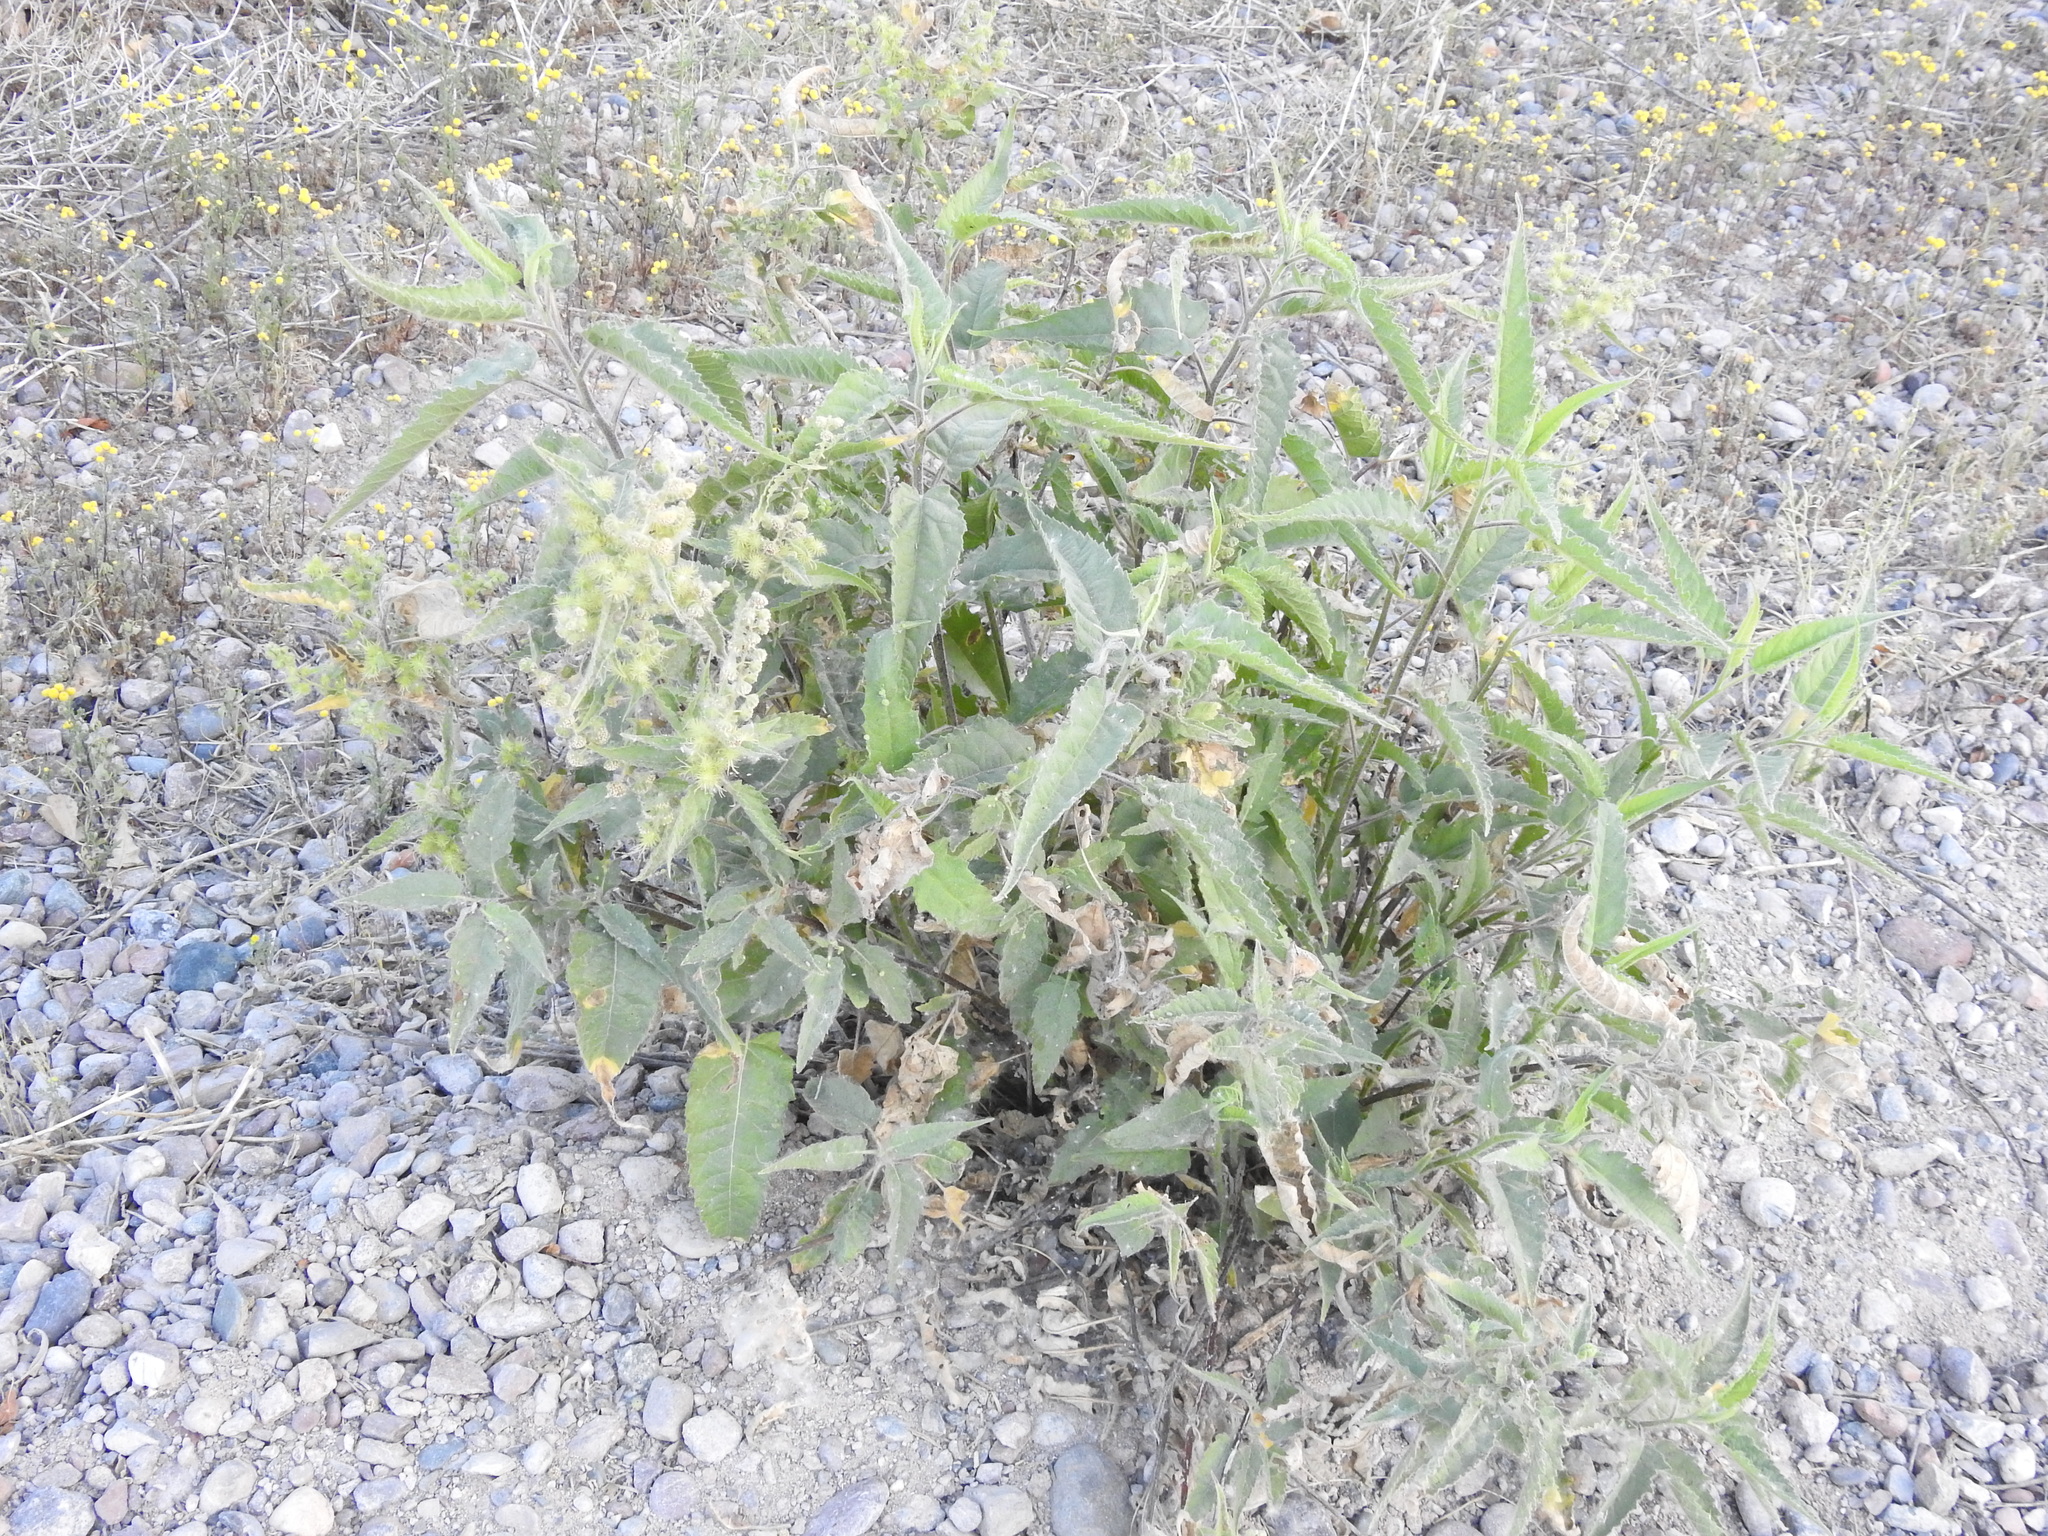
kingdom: Plantae
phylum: Tracheophyta
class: Magnoliopsida
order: Asterales
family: Asteraceae
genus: Ambrosia
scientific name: Ambrosia ambrosioides
